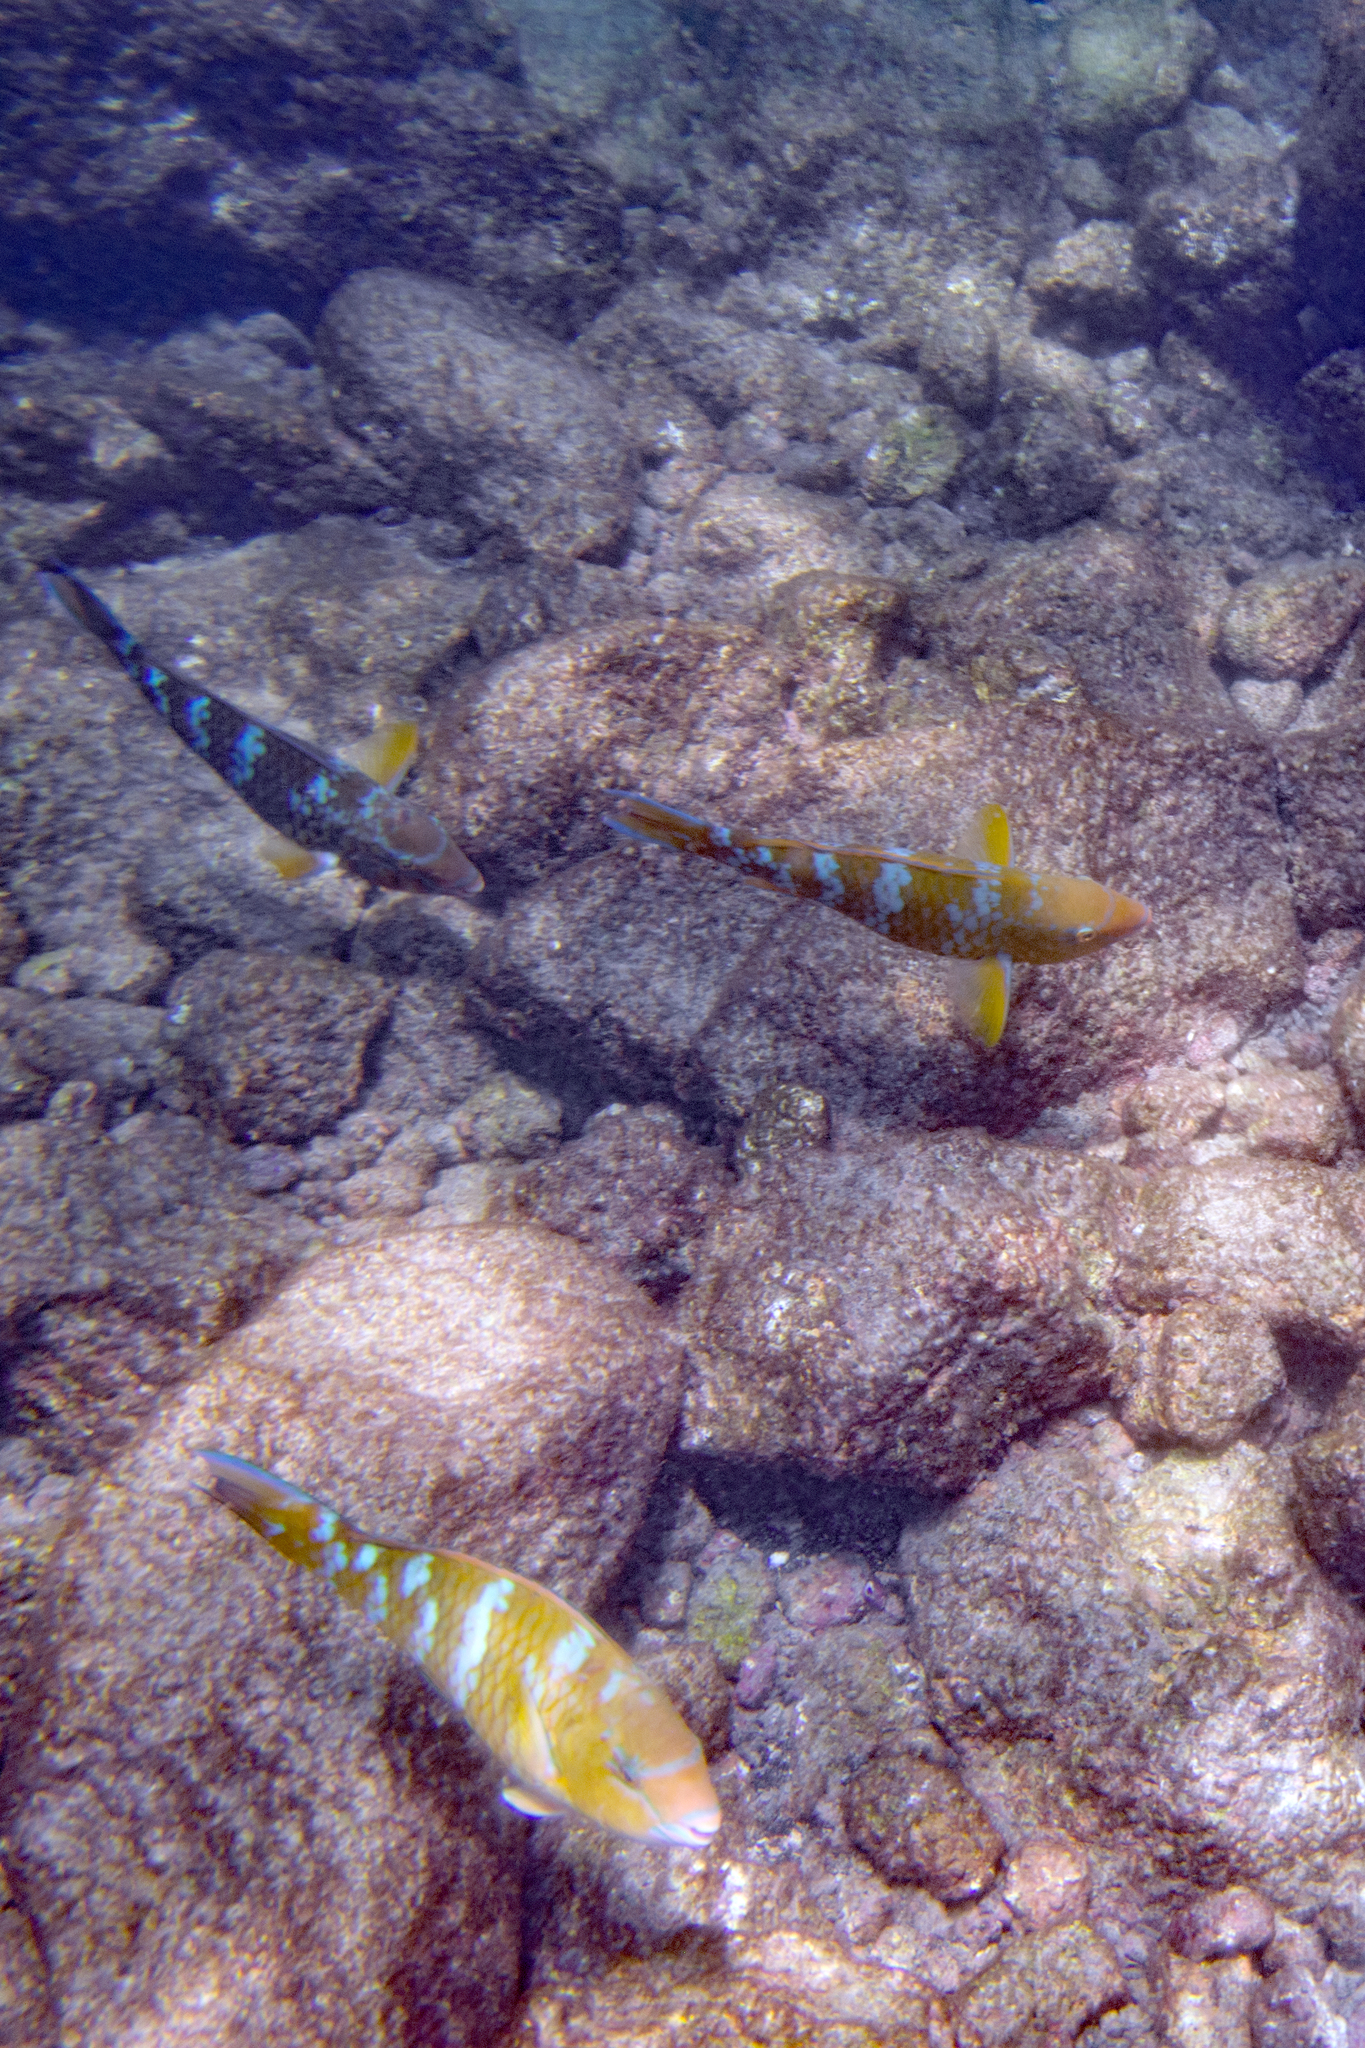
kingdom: Animalia
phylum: Chordata
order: Perciformes
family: Scaridae
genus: Scarus
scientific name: Scarus ghobban
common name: Blue-barred parrotfish
